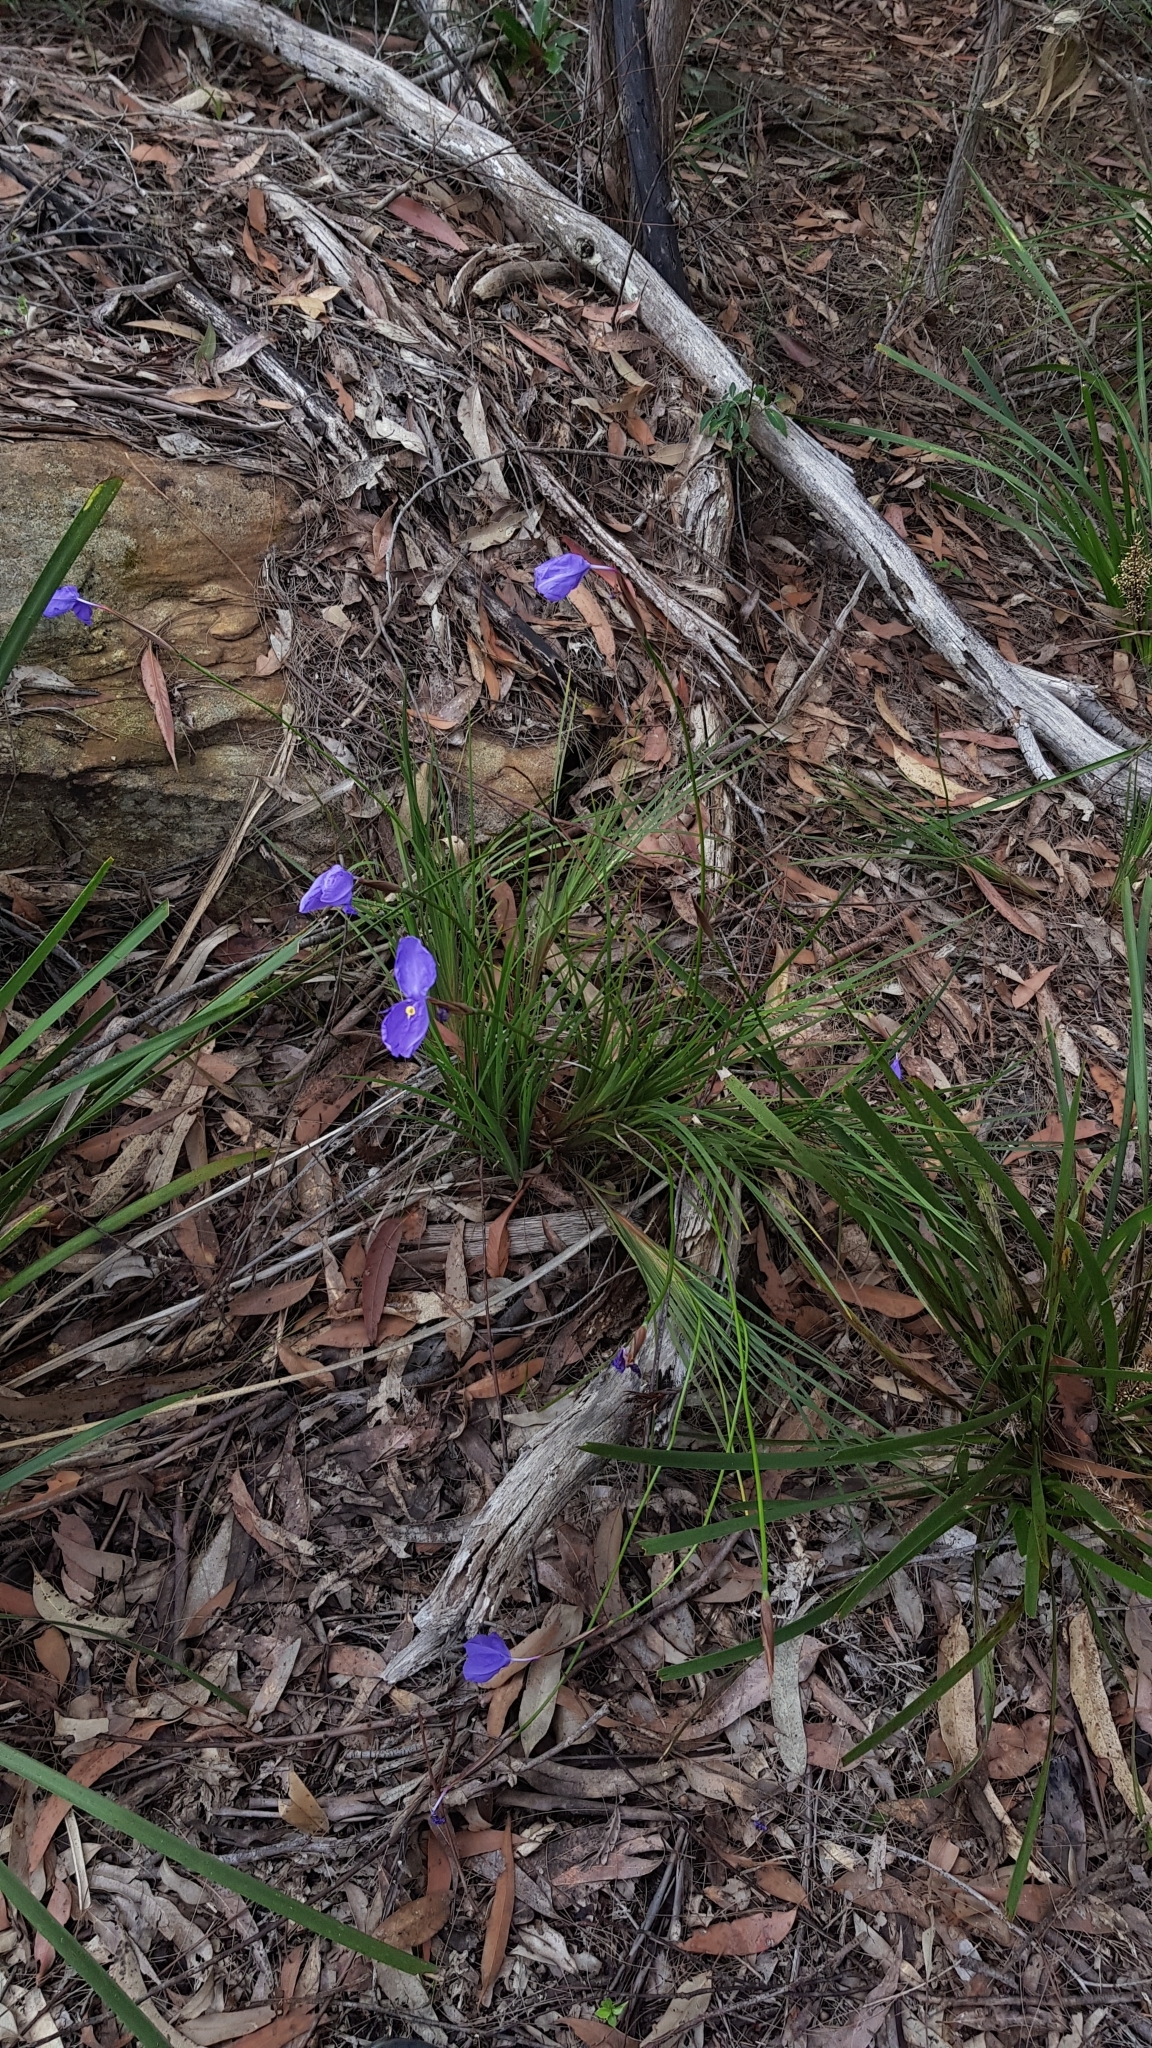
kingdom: Plantae
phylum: Tracheophyta
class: Liliopsida
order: Asparagales
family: Iridaceae
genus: Patersonia
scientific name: Patersonia glabrata
